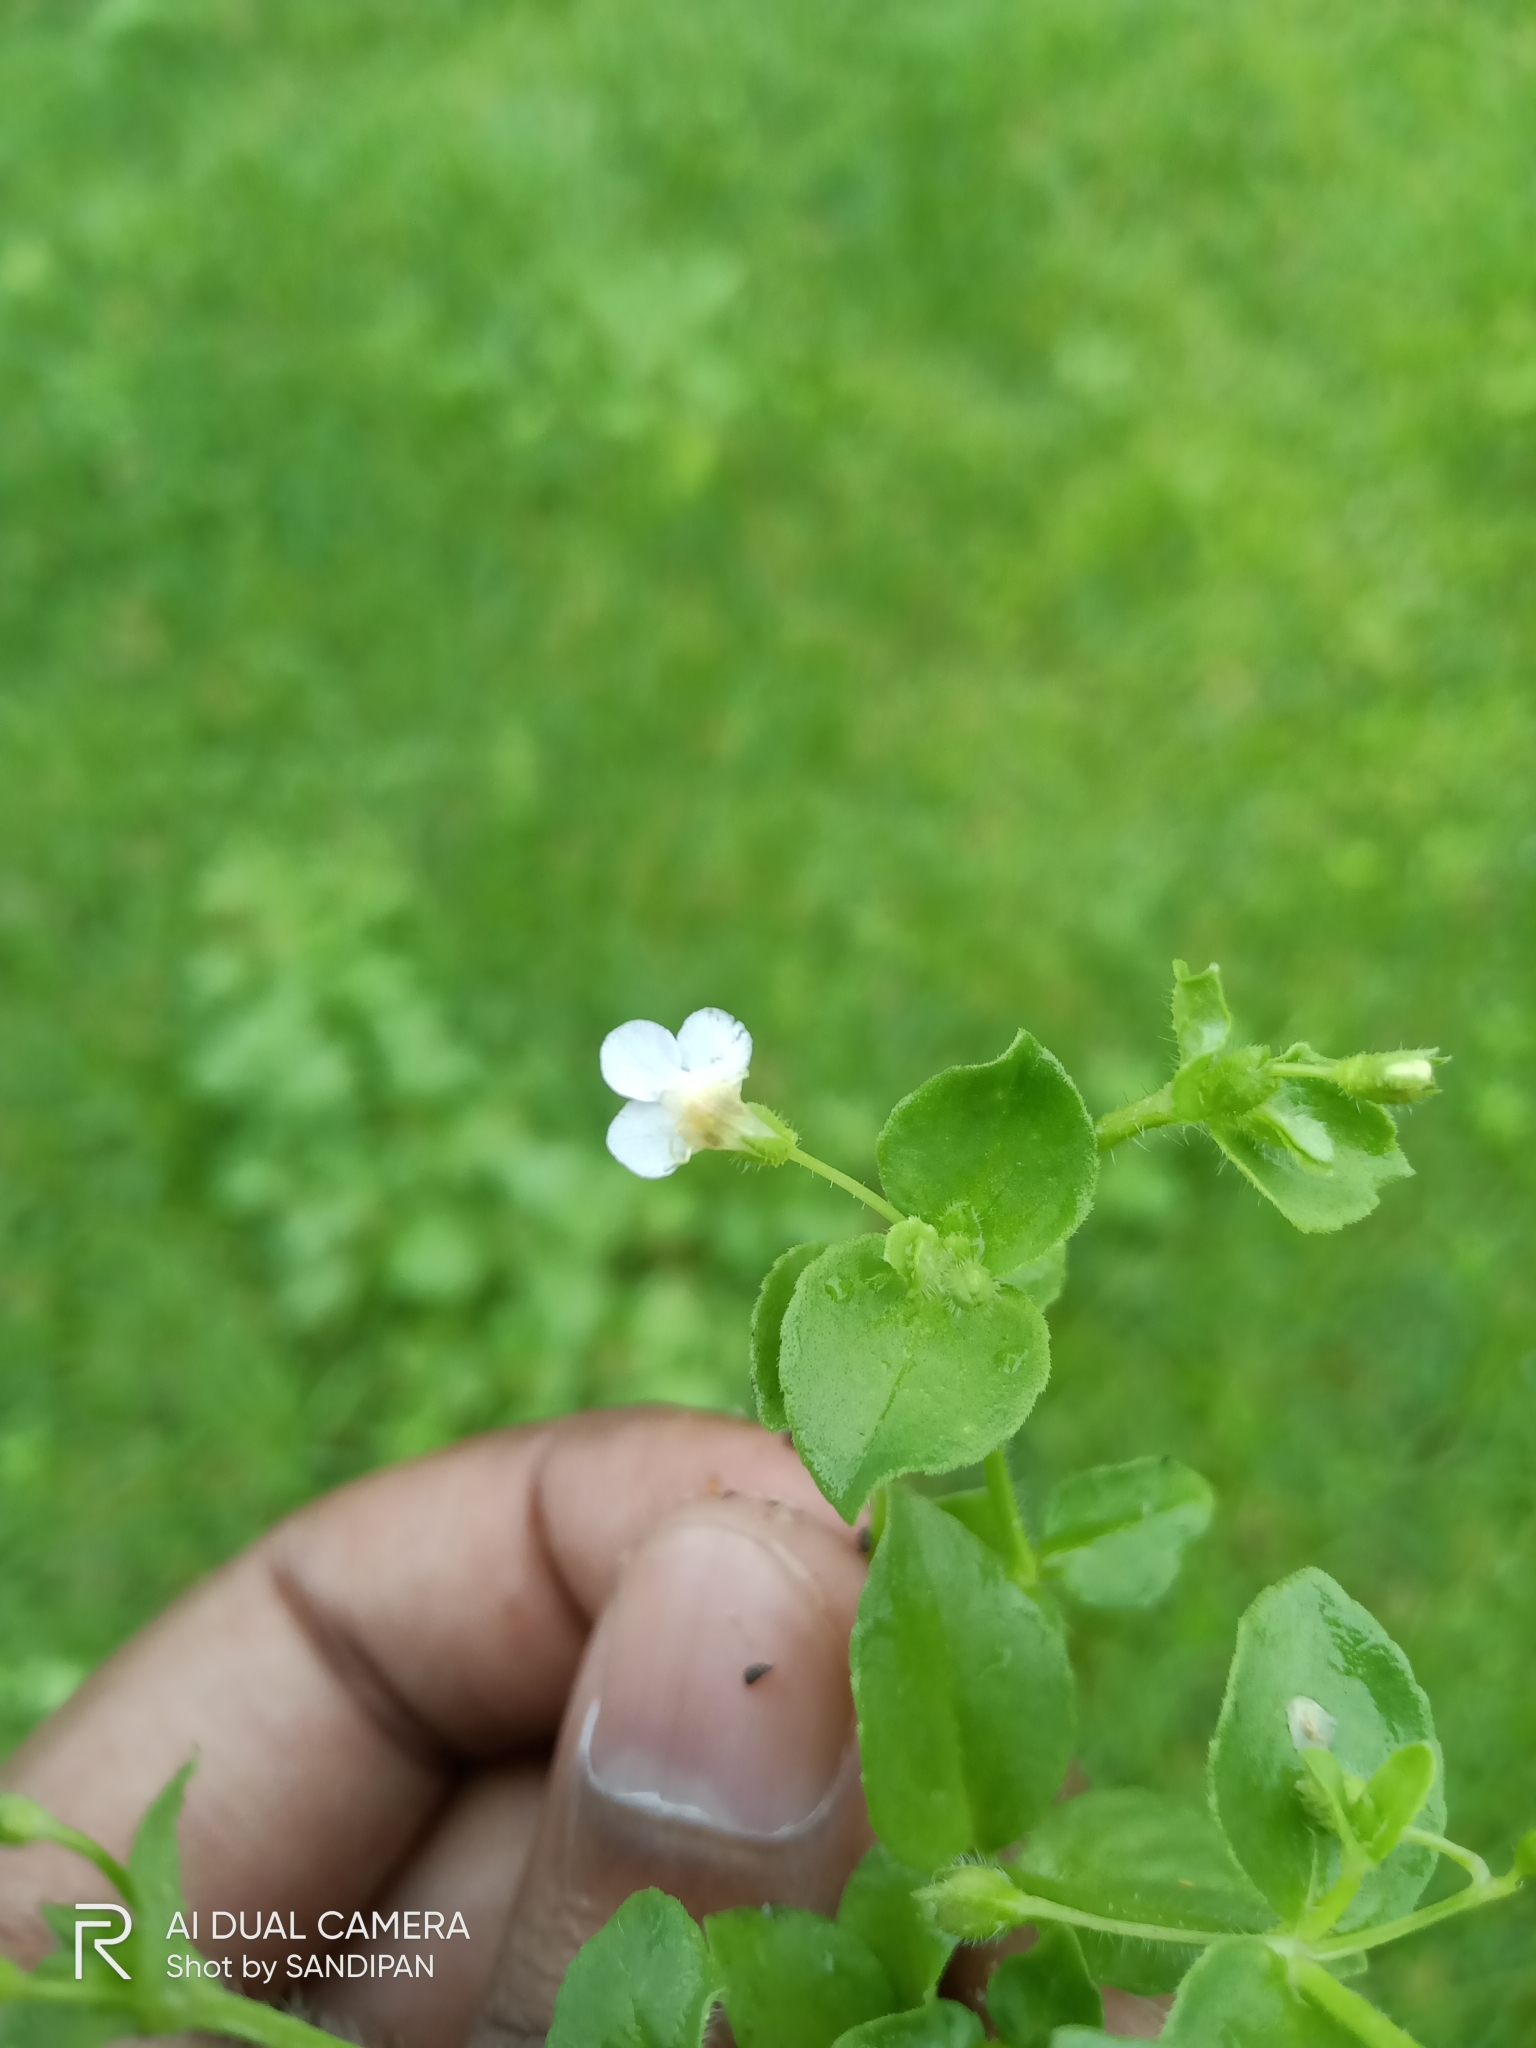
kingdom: Plantae
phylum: Tracheophyta
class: Magnoliopsida
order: Lamiales
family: Linderniaceae
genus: Yamazakia
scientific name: Yamazakia pusilla
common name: Tiny slitwort
